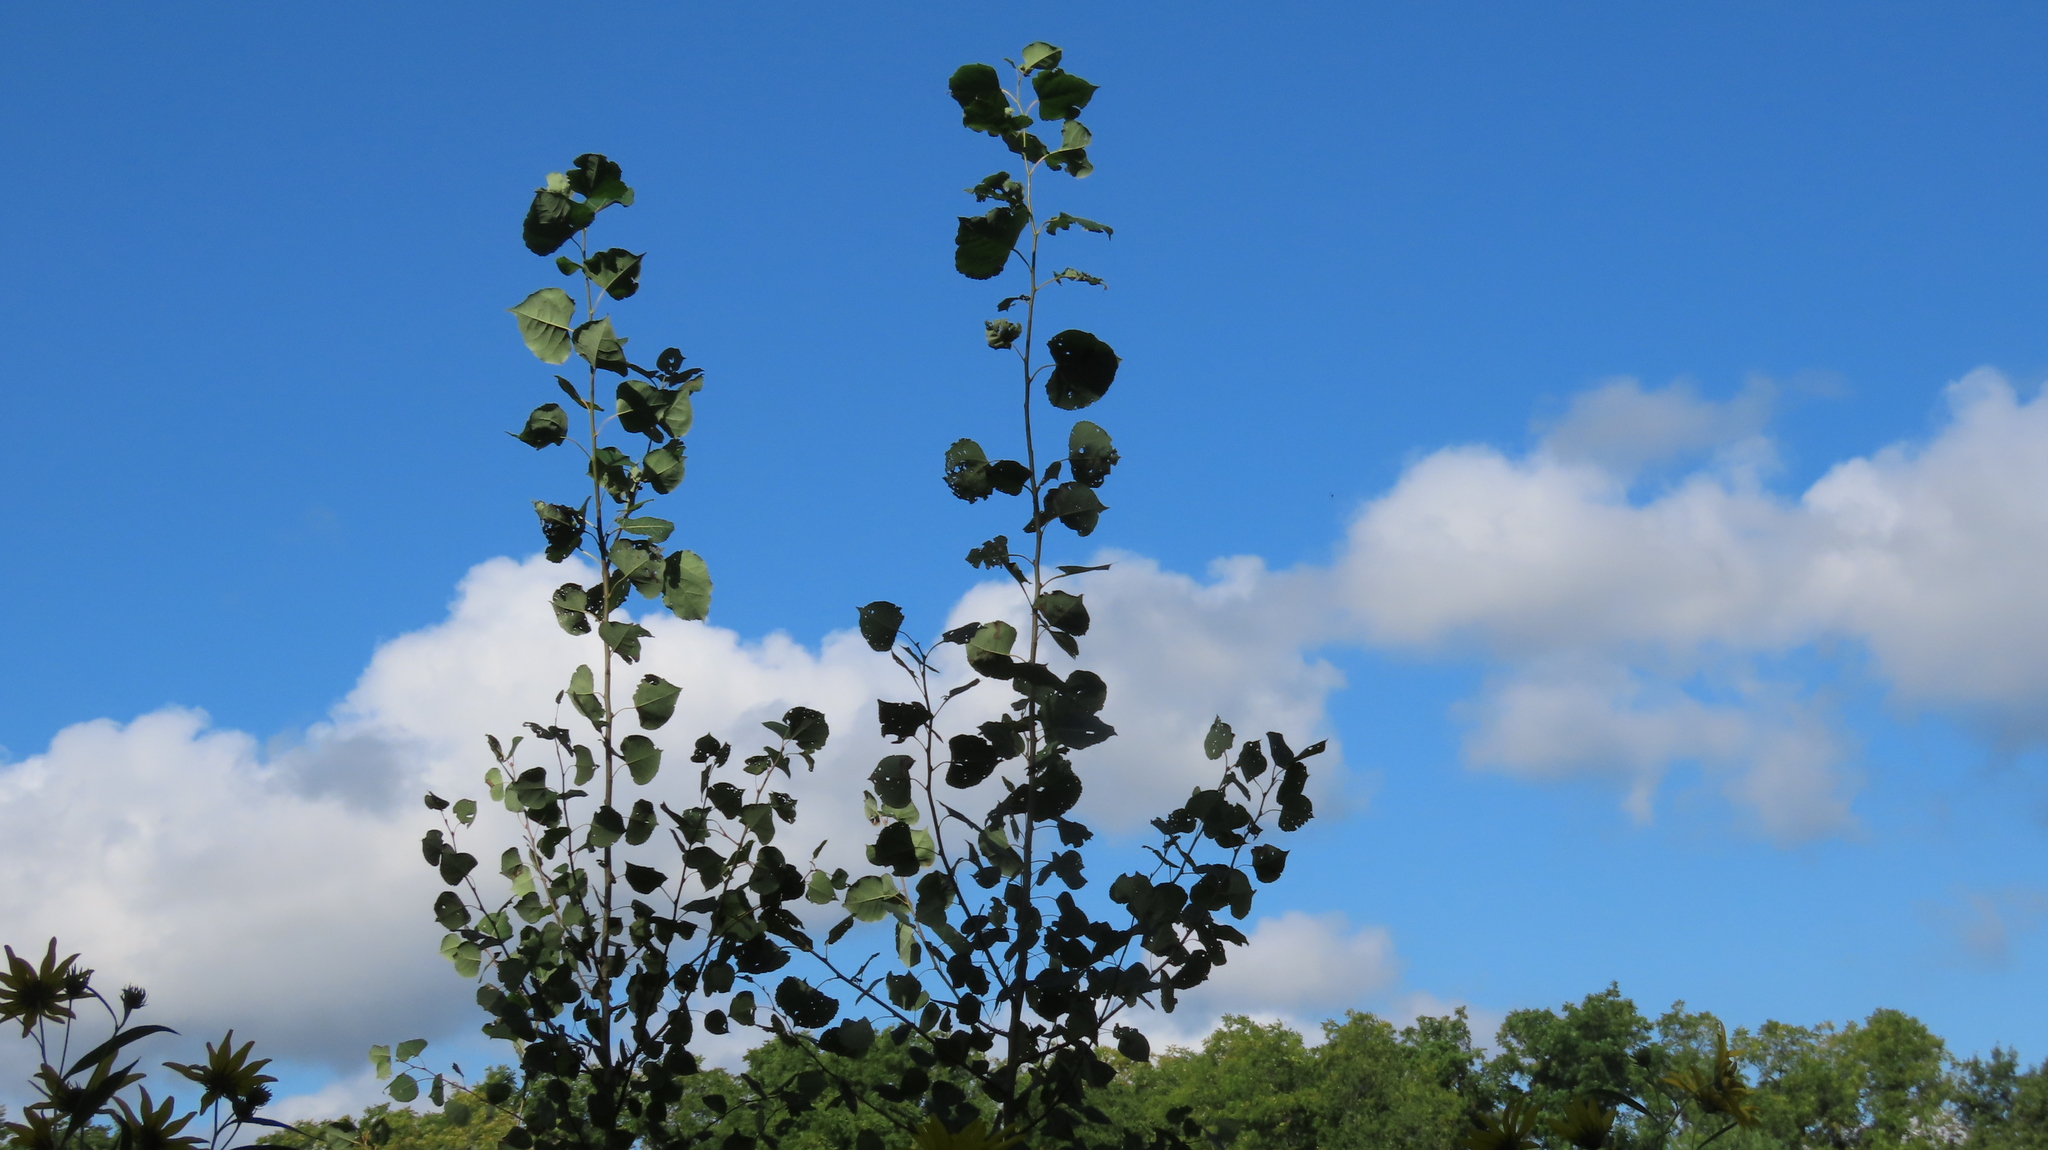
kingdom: Plantae
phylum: Tracheophyta
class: Magnoliopsida
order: Malpighiales
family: Salicaceae
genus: Populus
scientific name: Populus deltoides
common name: Eastern cottonwood
